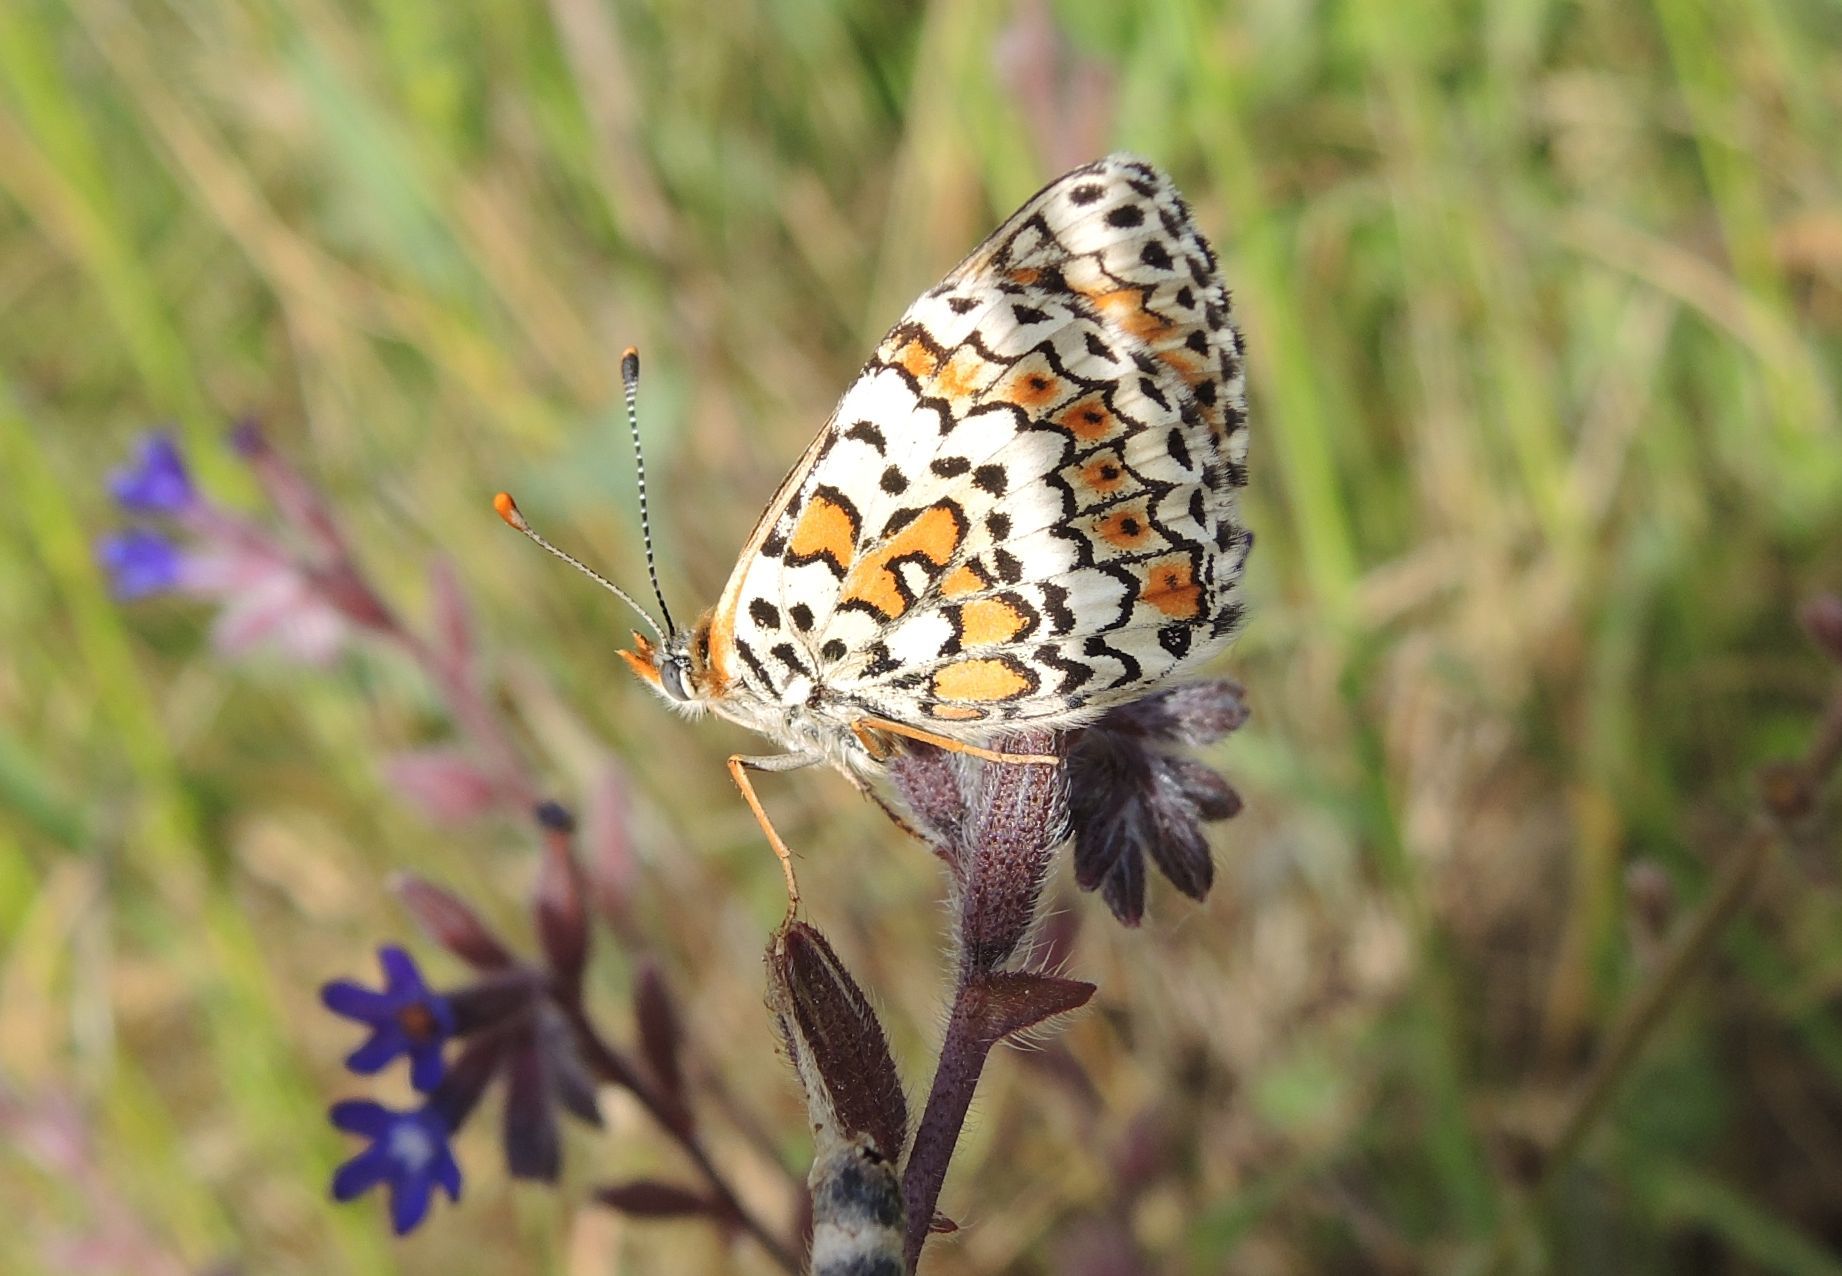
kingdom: Animalia
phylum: Arthropoda
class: Insecta
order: Lepidoptera
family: Nymphalidae
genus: Melitaea
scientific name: Melitaea cinxia
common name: Glanville fritillary
